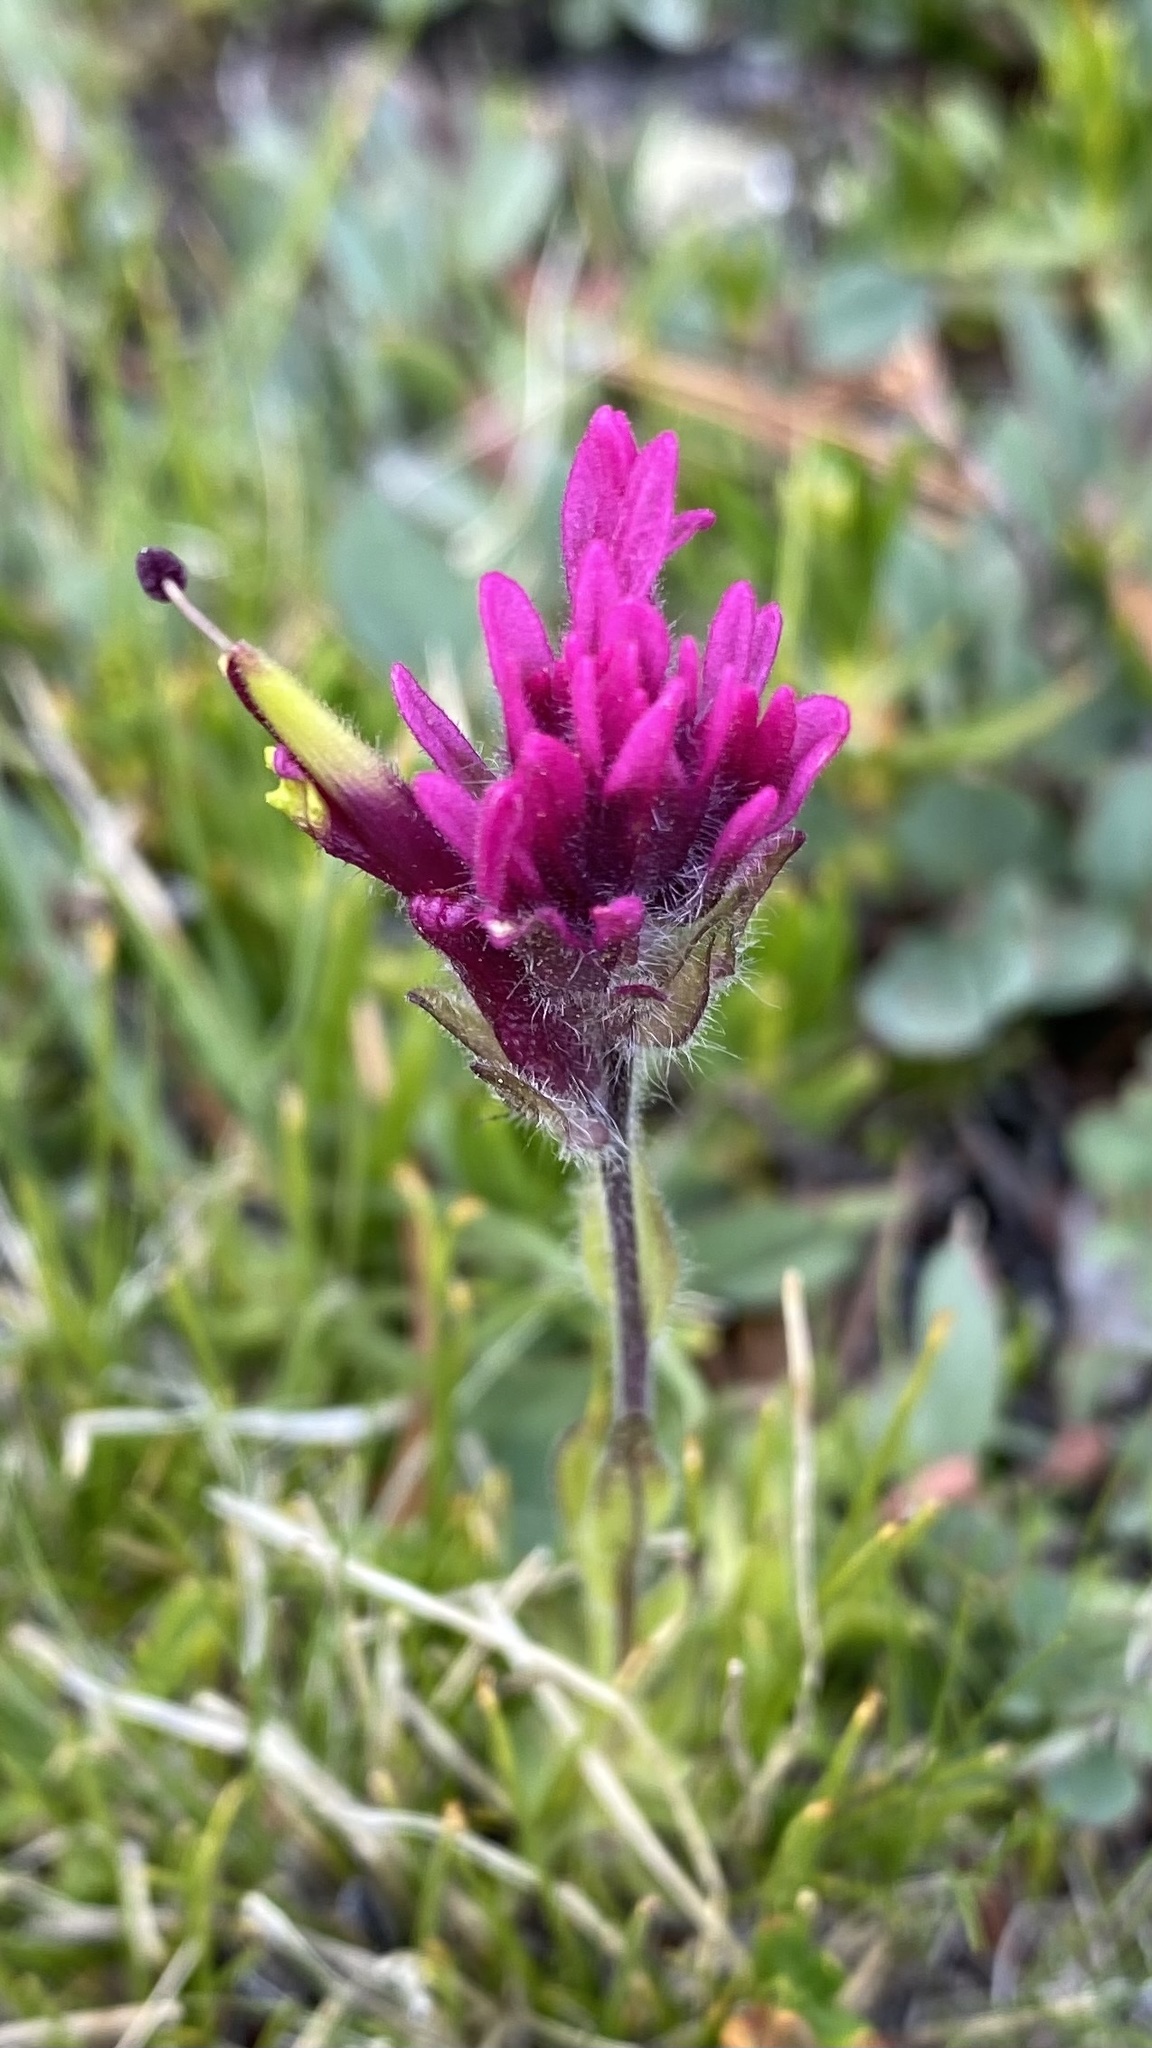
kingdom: Plantae
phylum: Tracheophyta
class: Magnoliopsida
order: Lamiales
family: Orobanchaceae
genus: Castilleja
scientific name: Castilleja lemmonii
